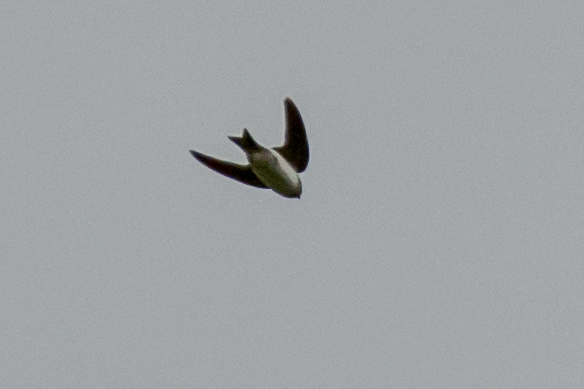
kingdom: Animalia
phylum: Chordata
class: Aves
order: Passeriformes
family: Hirundinidae
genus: Delichon
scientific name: Delichon urbicum
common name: Common house martin
